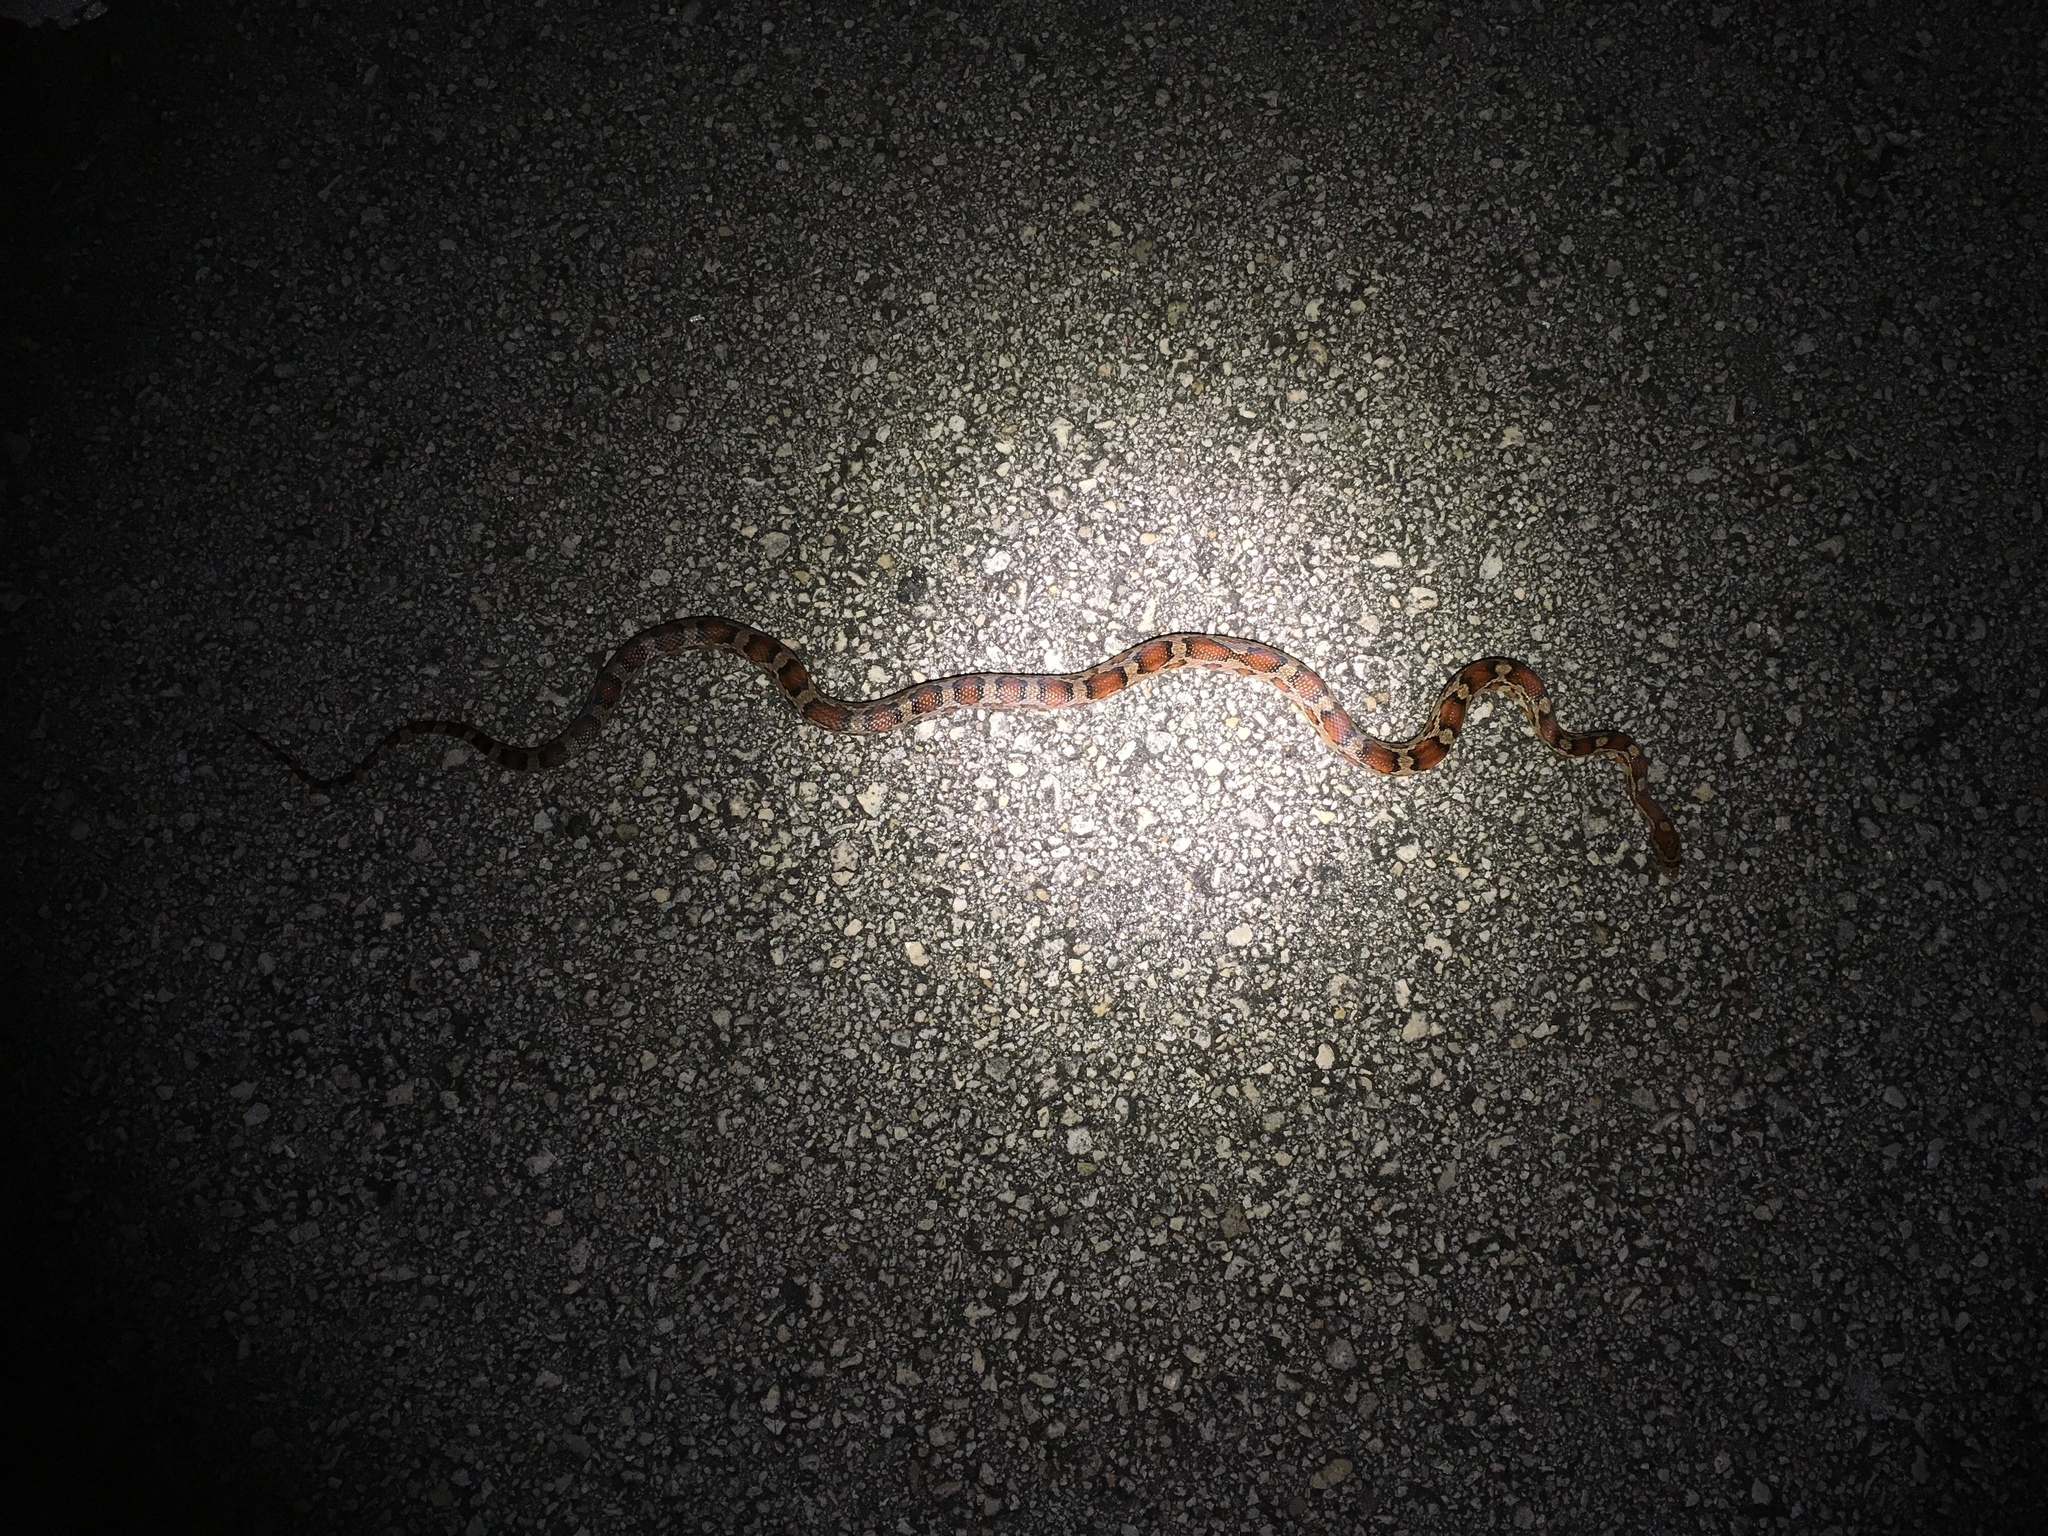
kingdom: Animalia
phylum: Chordata
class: Squamata
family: Colubridae
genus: Pantherophis
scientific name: Pantherophis guttatus
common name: Red cornsnake
